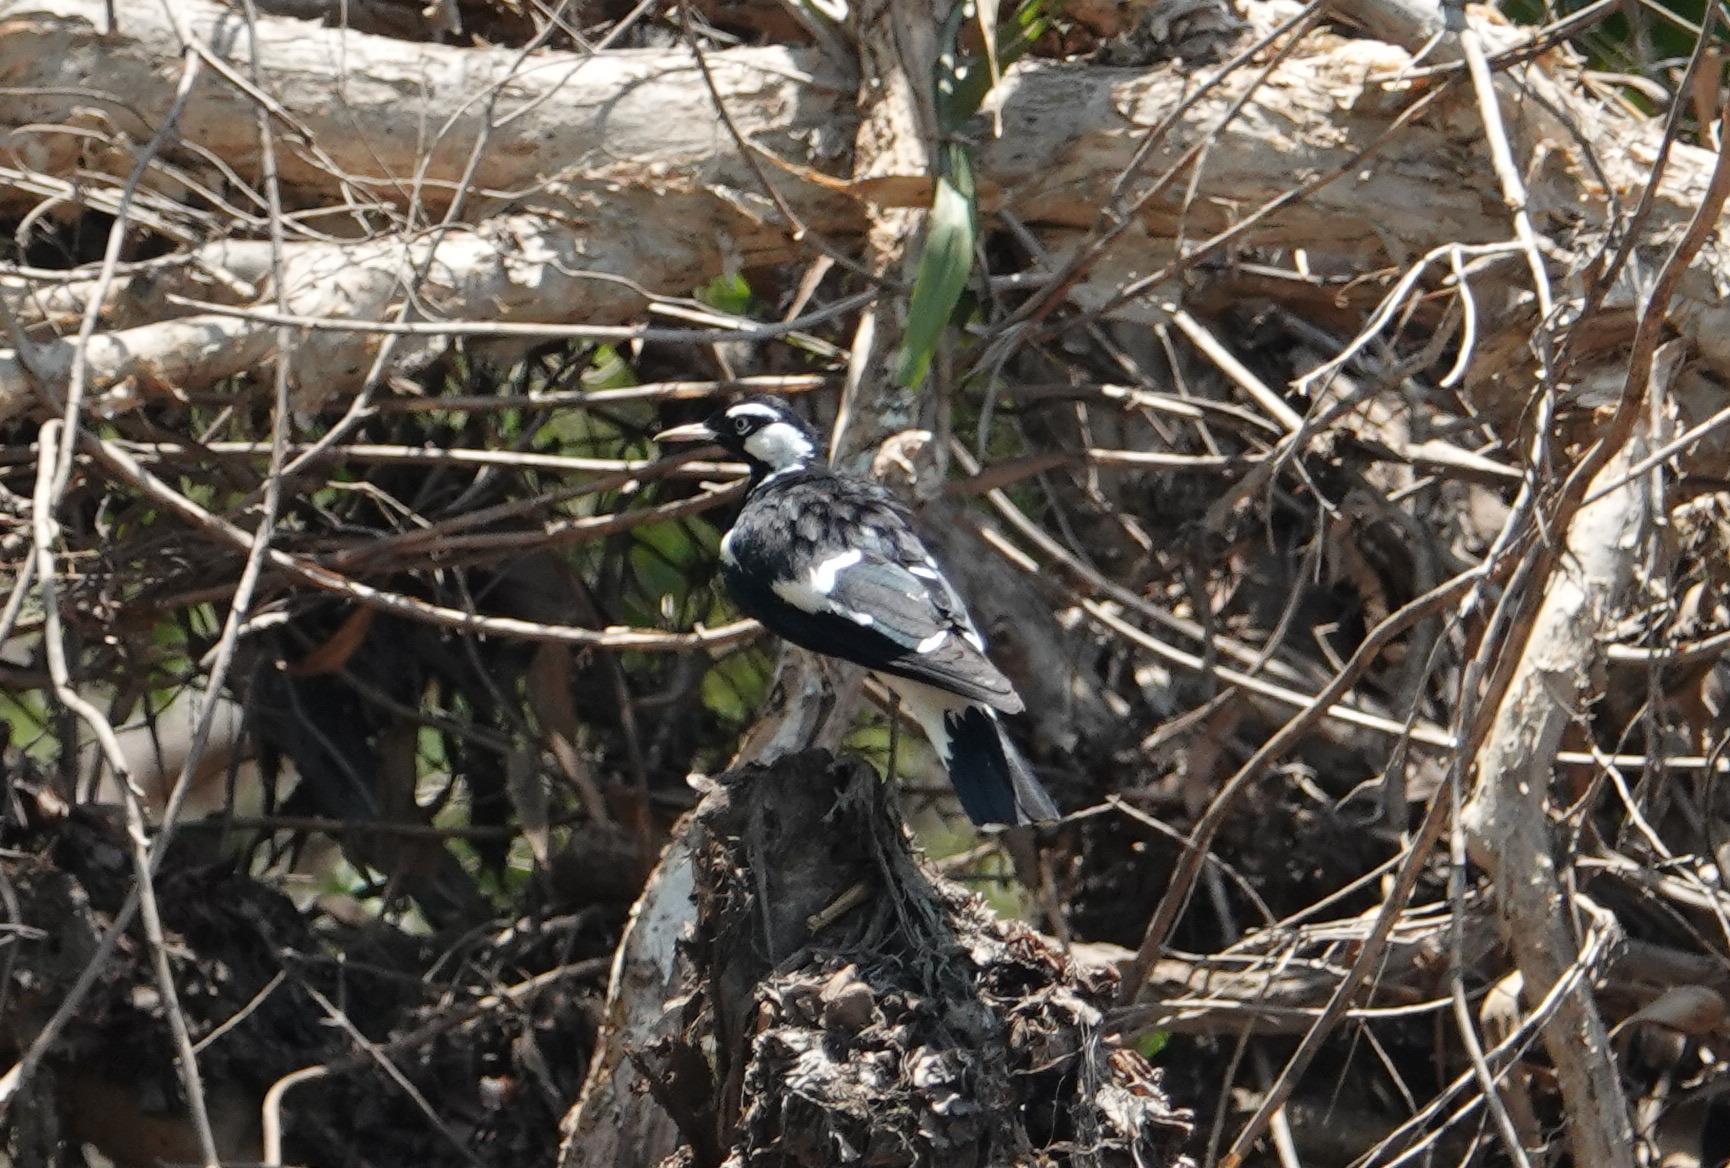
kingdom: Animalia
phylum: Chordata
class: Aves
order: Passeriformes
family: Monarchidae
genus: Grallina
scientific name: Grallina cyanoleuca
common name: Magpie-lark
